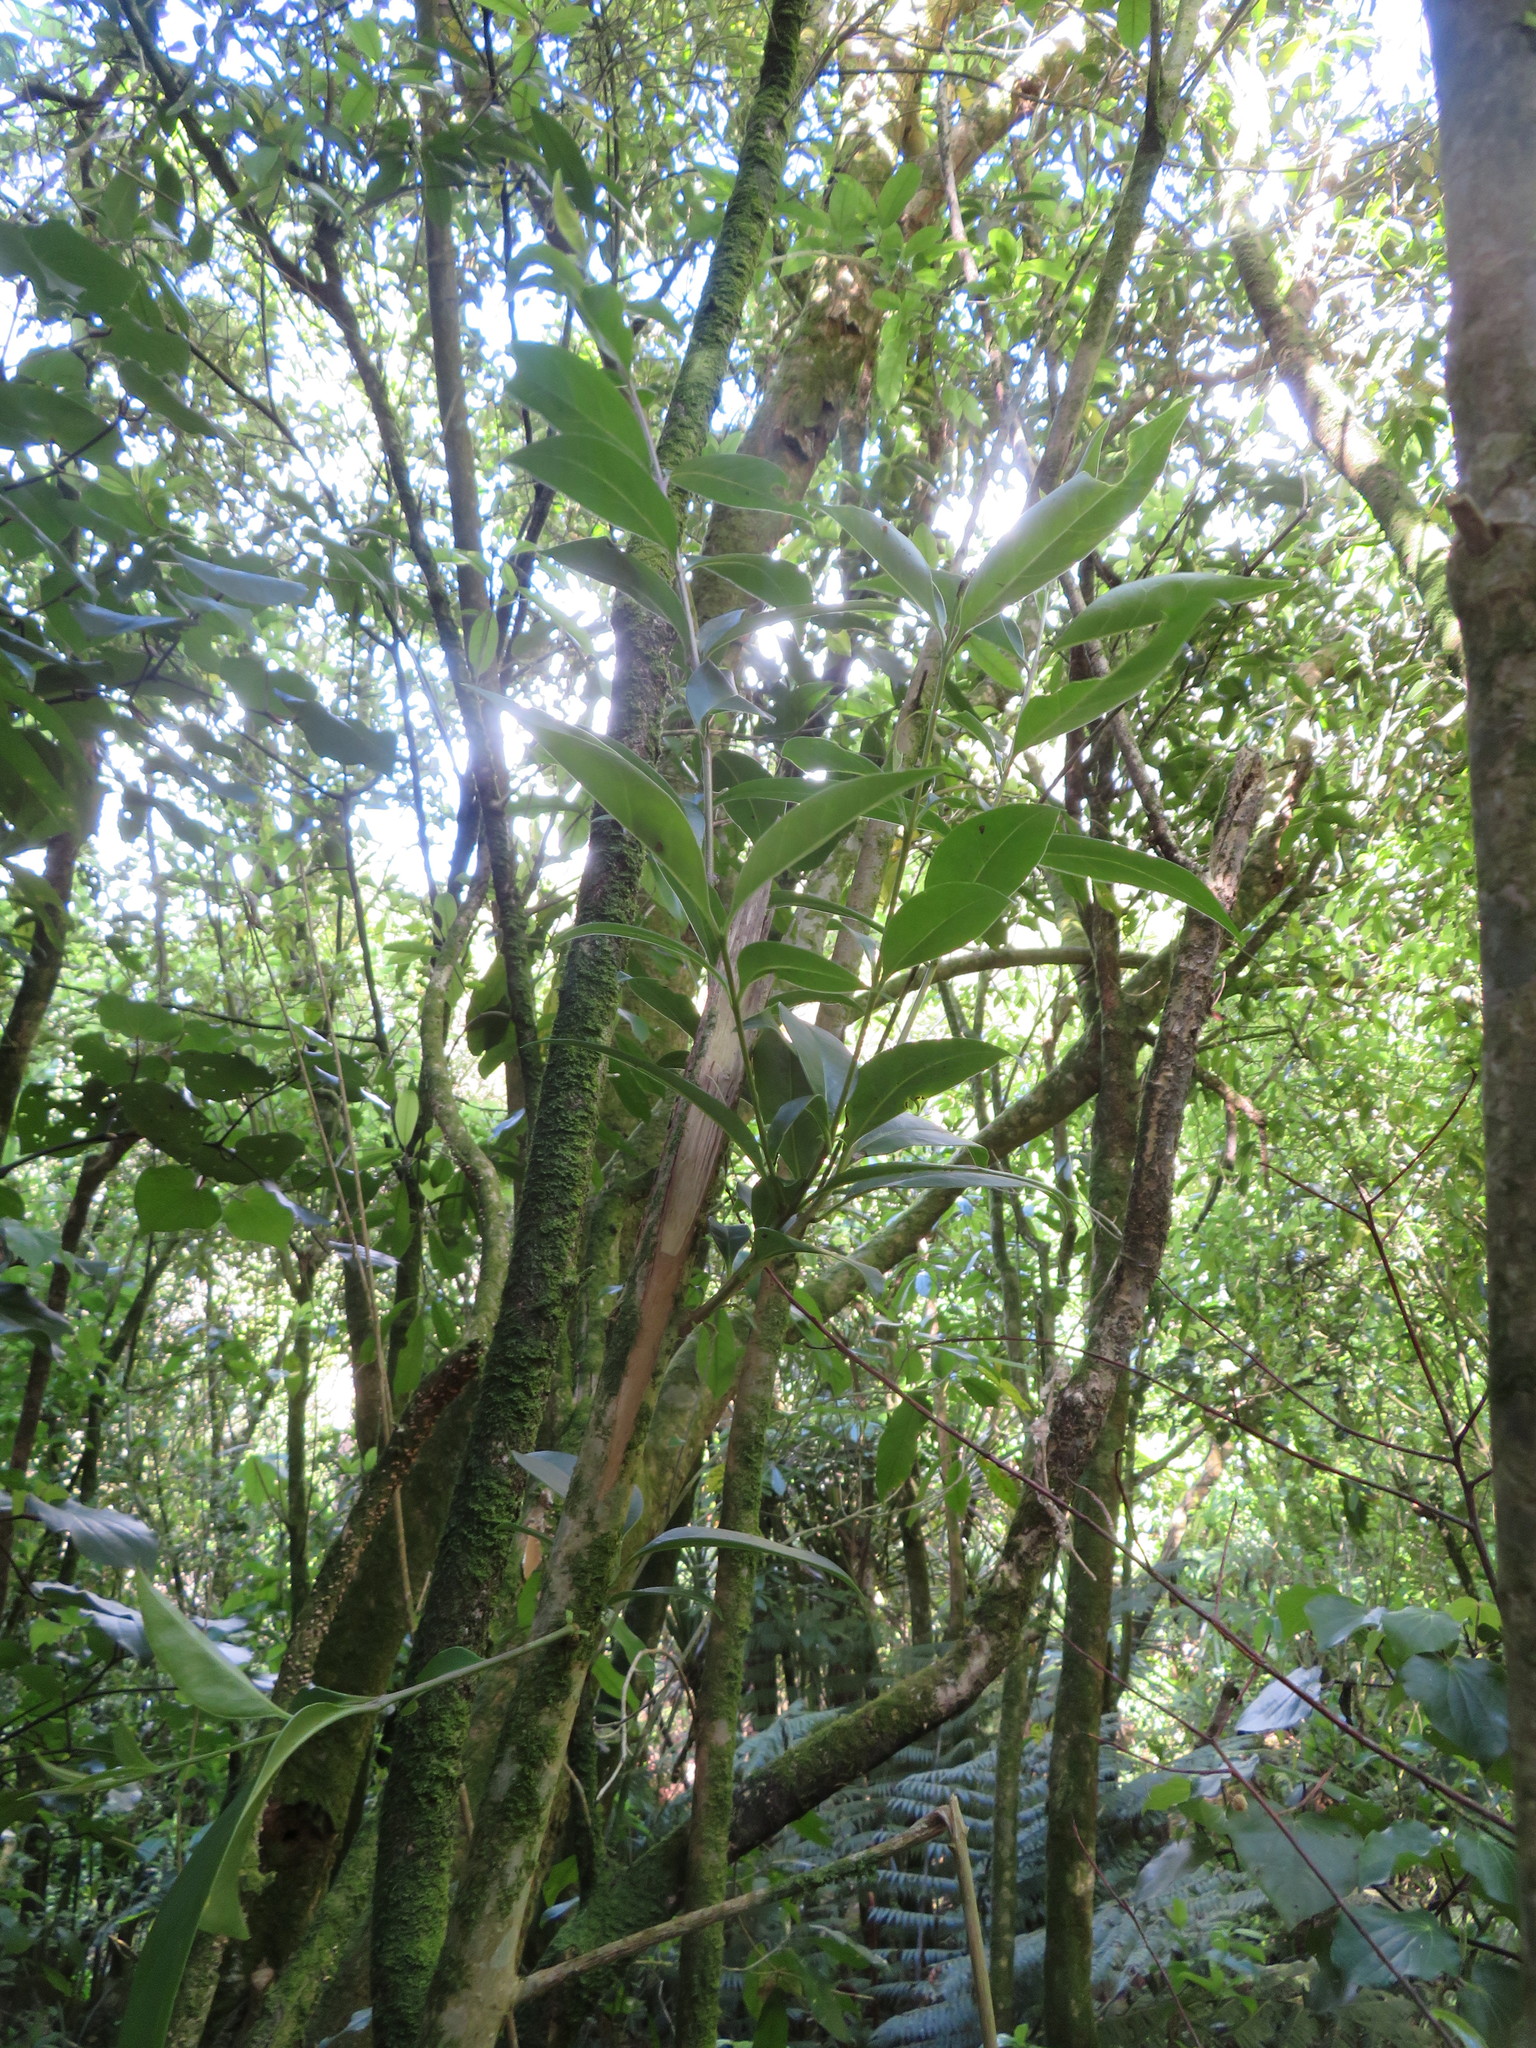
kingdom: Plantae
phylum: Tracheophyta
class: Magnoliopsida
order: Lamiales
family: Oleaceae
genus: Ligustrum
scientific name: Ligustrum lucidum
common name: Glossy privet
